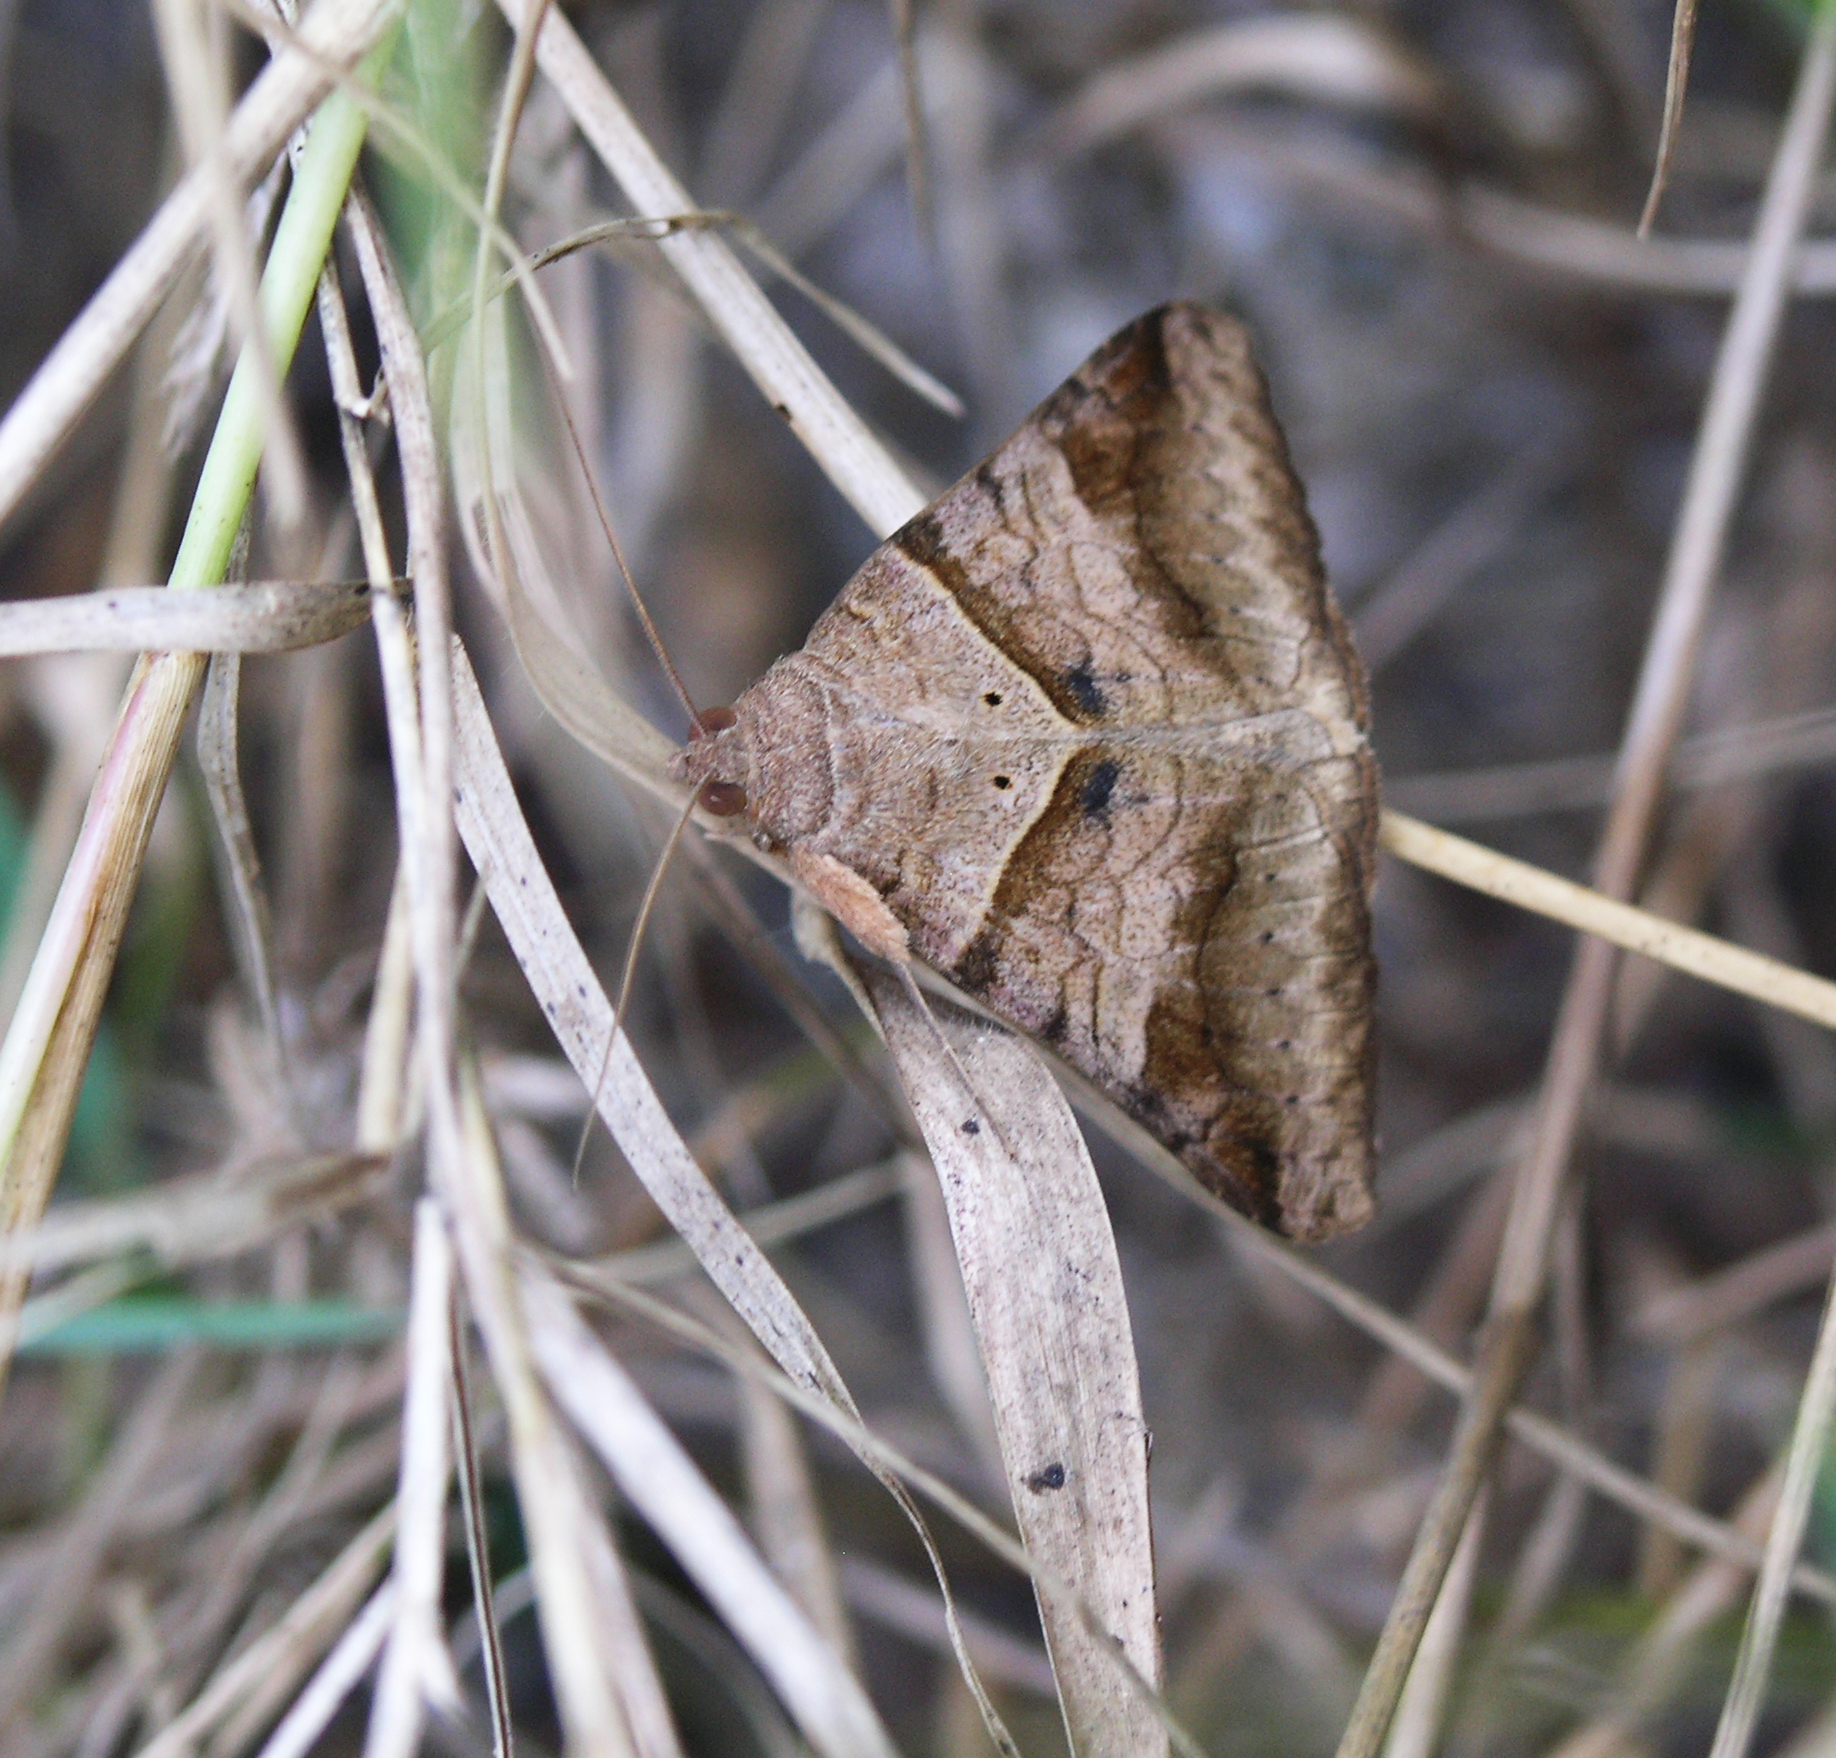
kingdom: Animalia
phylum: Arthropoda
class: Insecta
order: Lepidoptera
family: Erebidae
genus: Mocis
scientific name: Mocis undata
